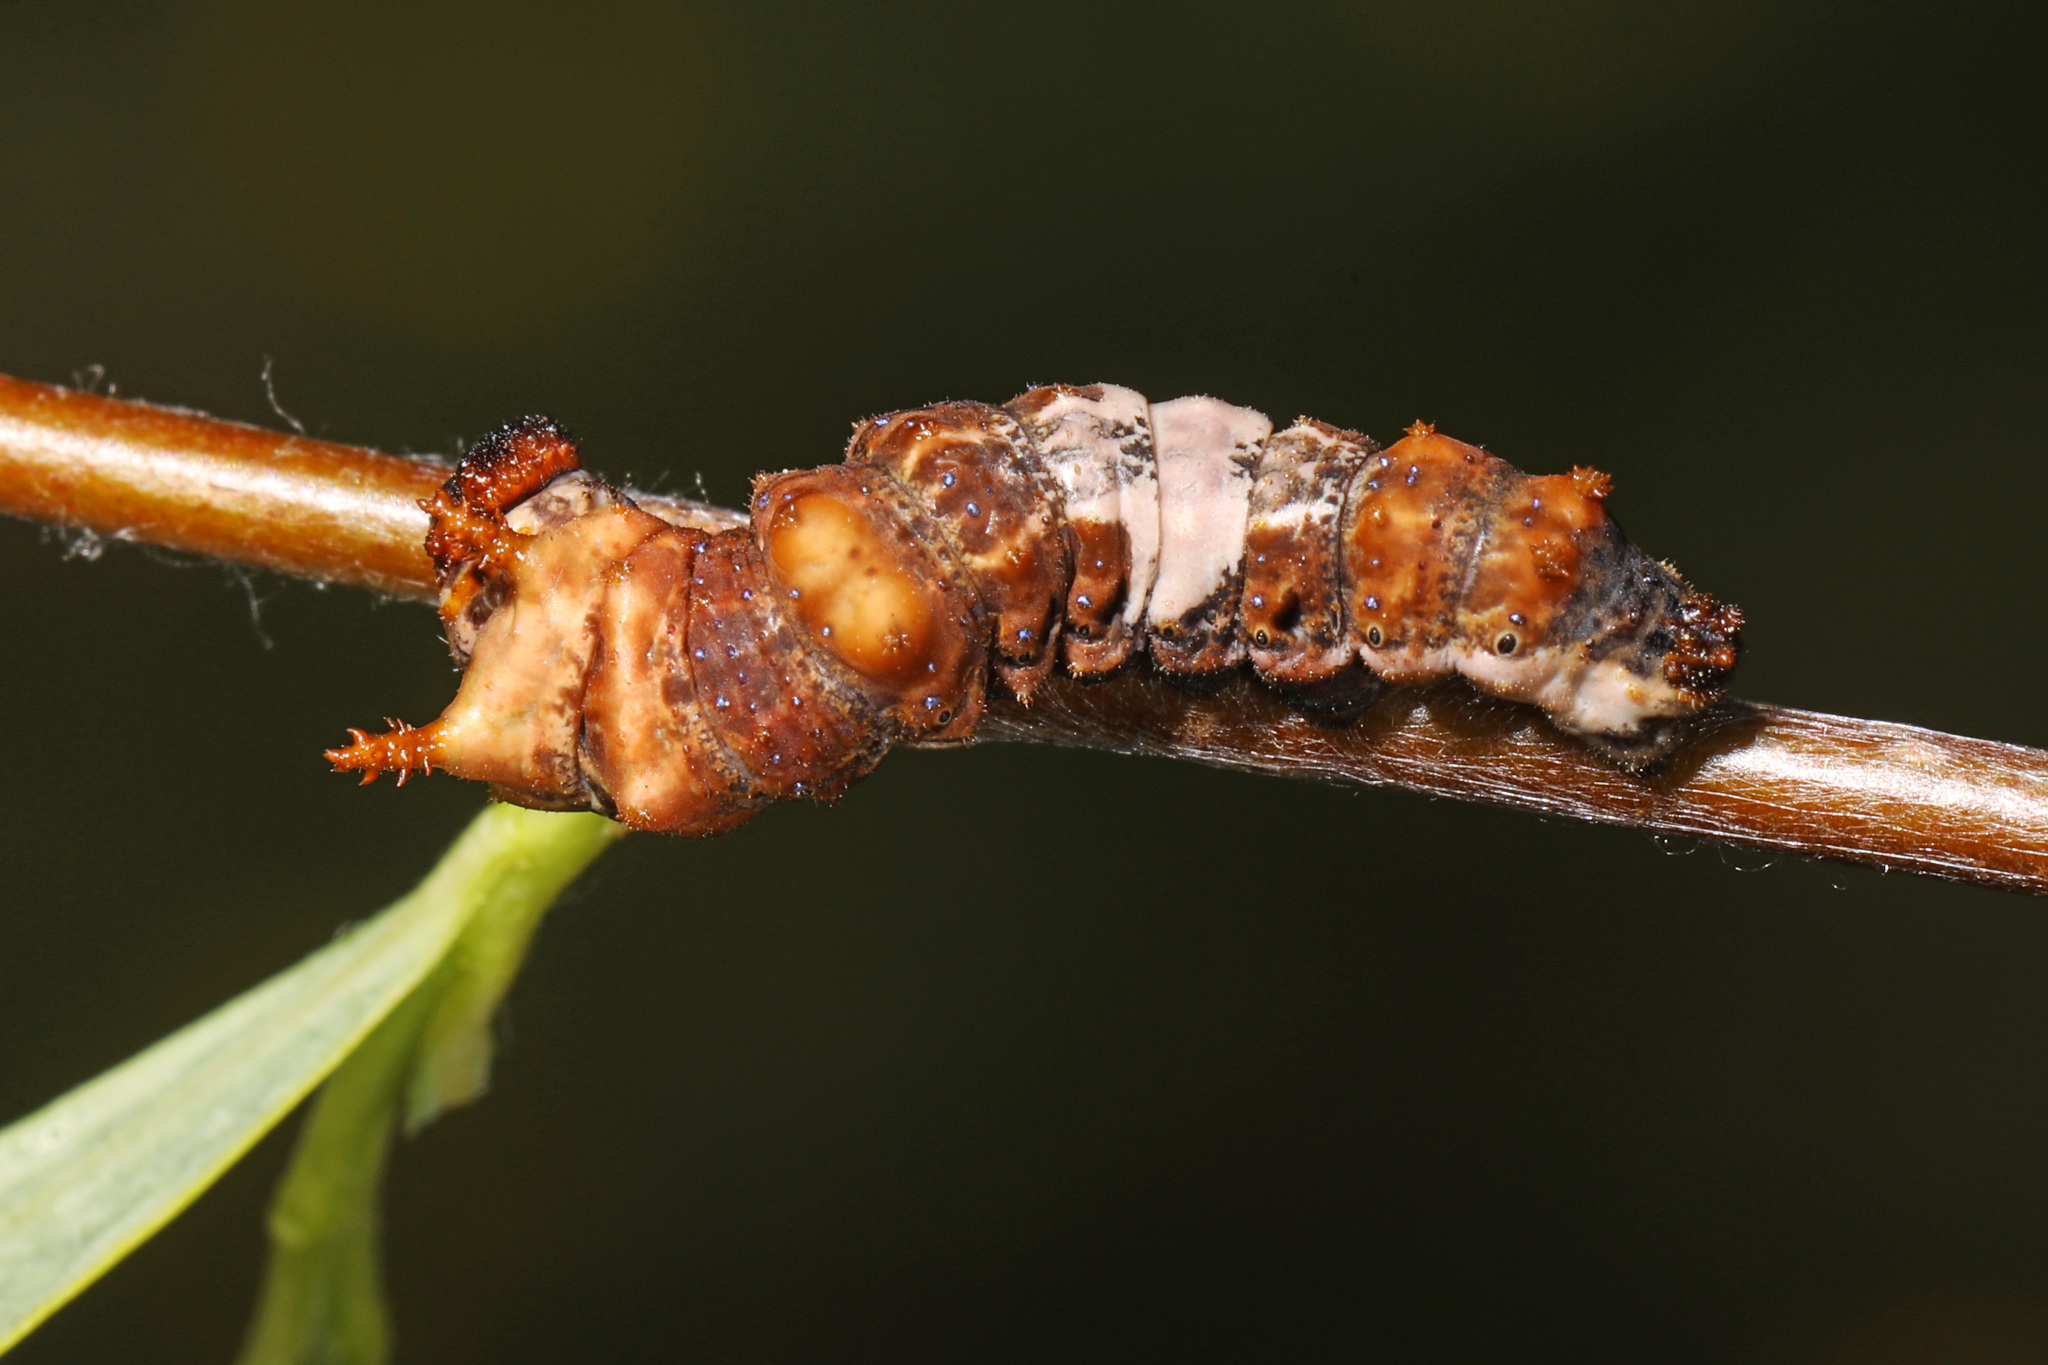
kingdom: Animalia
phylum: Arthropoda
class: Insecta
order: Lepidoptera
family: Nymphalidae
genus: Limenitis
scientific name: Limenitis archippus
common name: Viceroy
